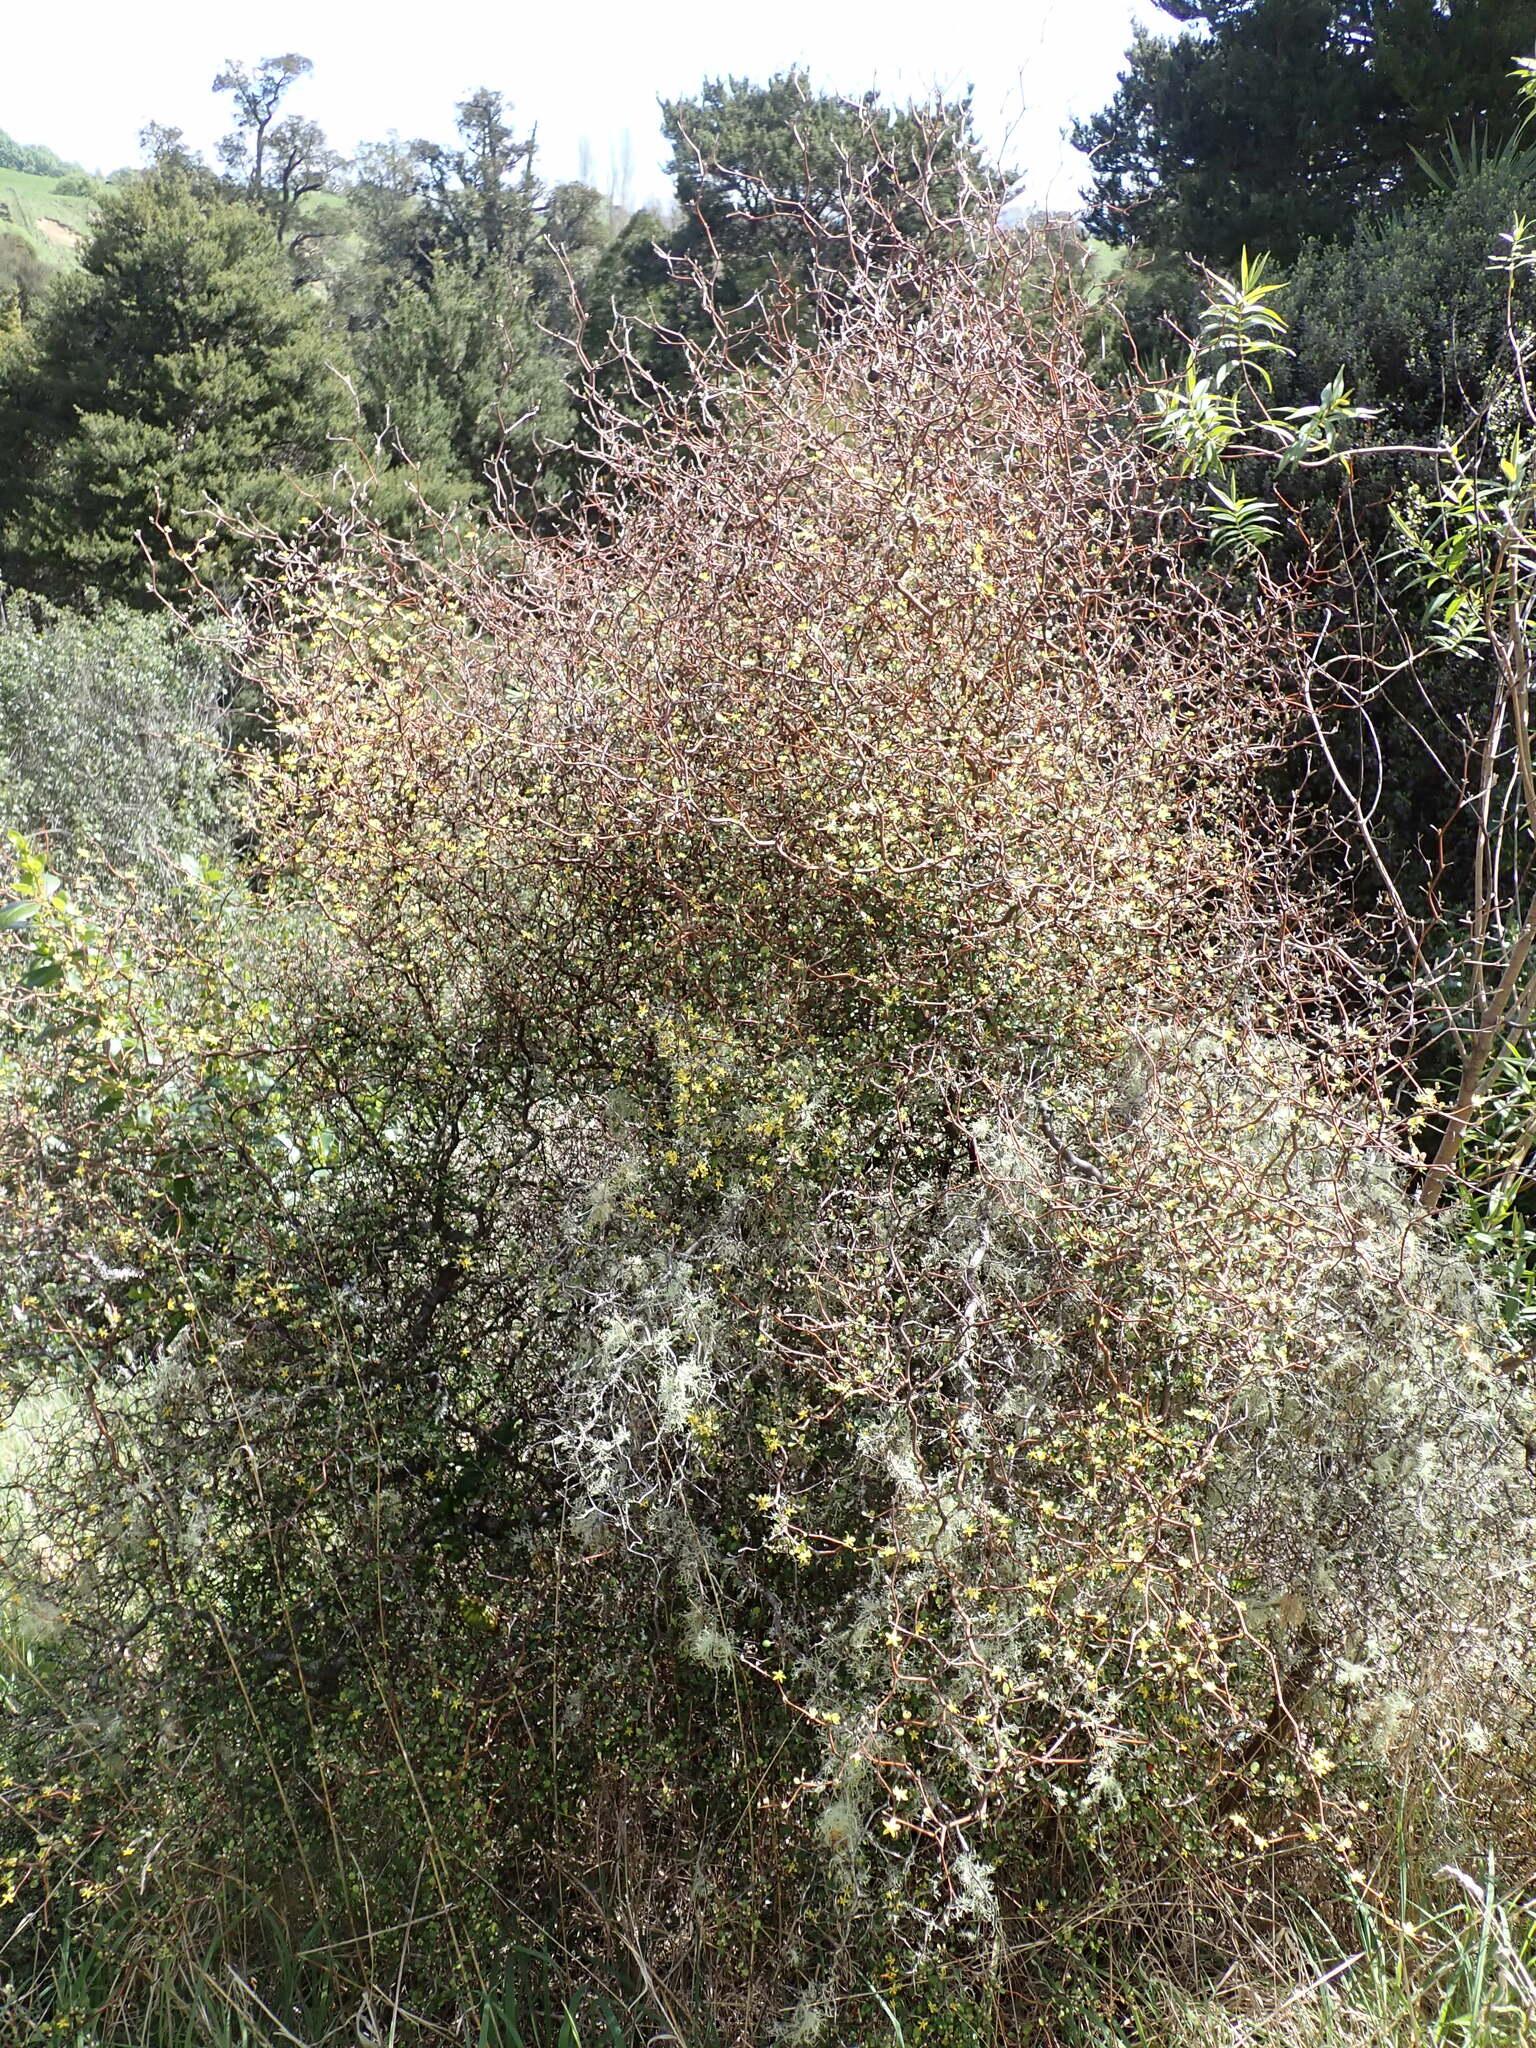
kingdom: Plantae
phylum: Tracheophyta
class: Magnoliopsida
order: Asterales
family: Argophyllaceae
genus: Corokia
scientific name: Corokia cotoneaster
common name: Wire nettingbush
